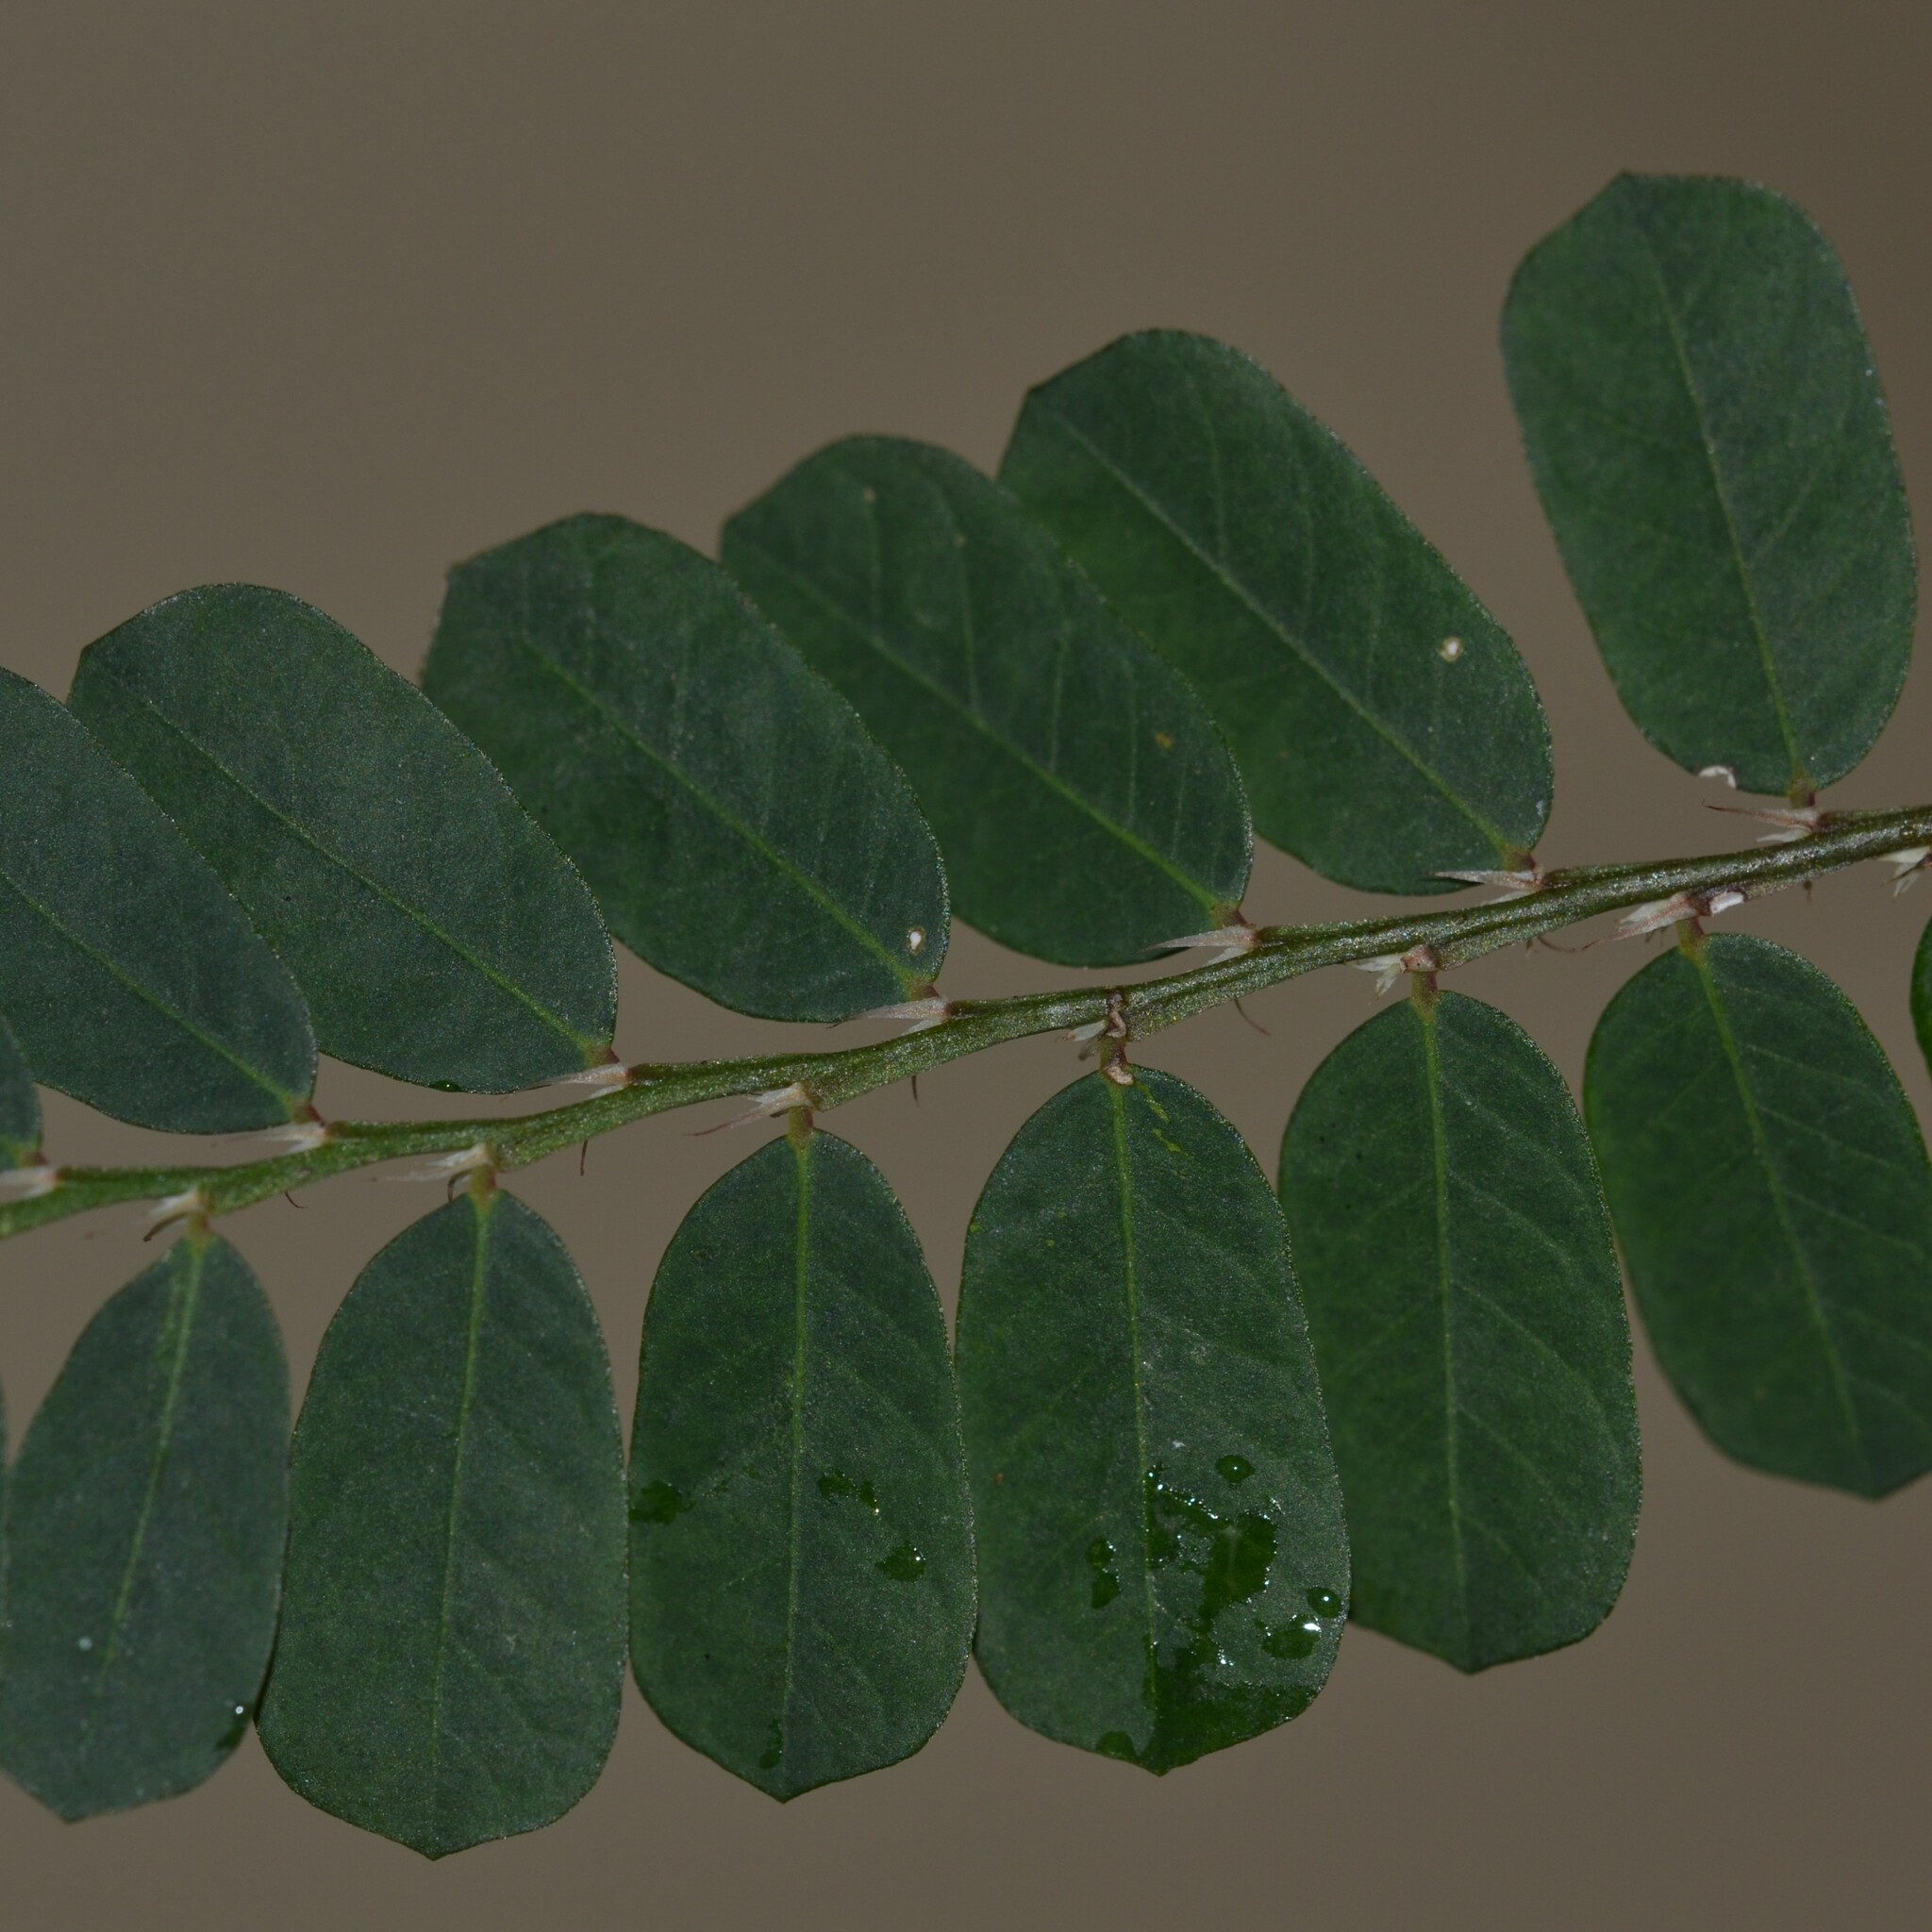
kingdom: Plantae
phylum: Tracheophyta
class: Magnoliopsida
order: Malpighiales
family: Phyllanthaceae
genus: Phyllanthus
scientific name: Phyllanthus leucanthus
